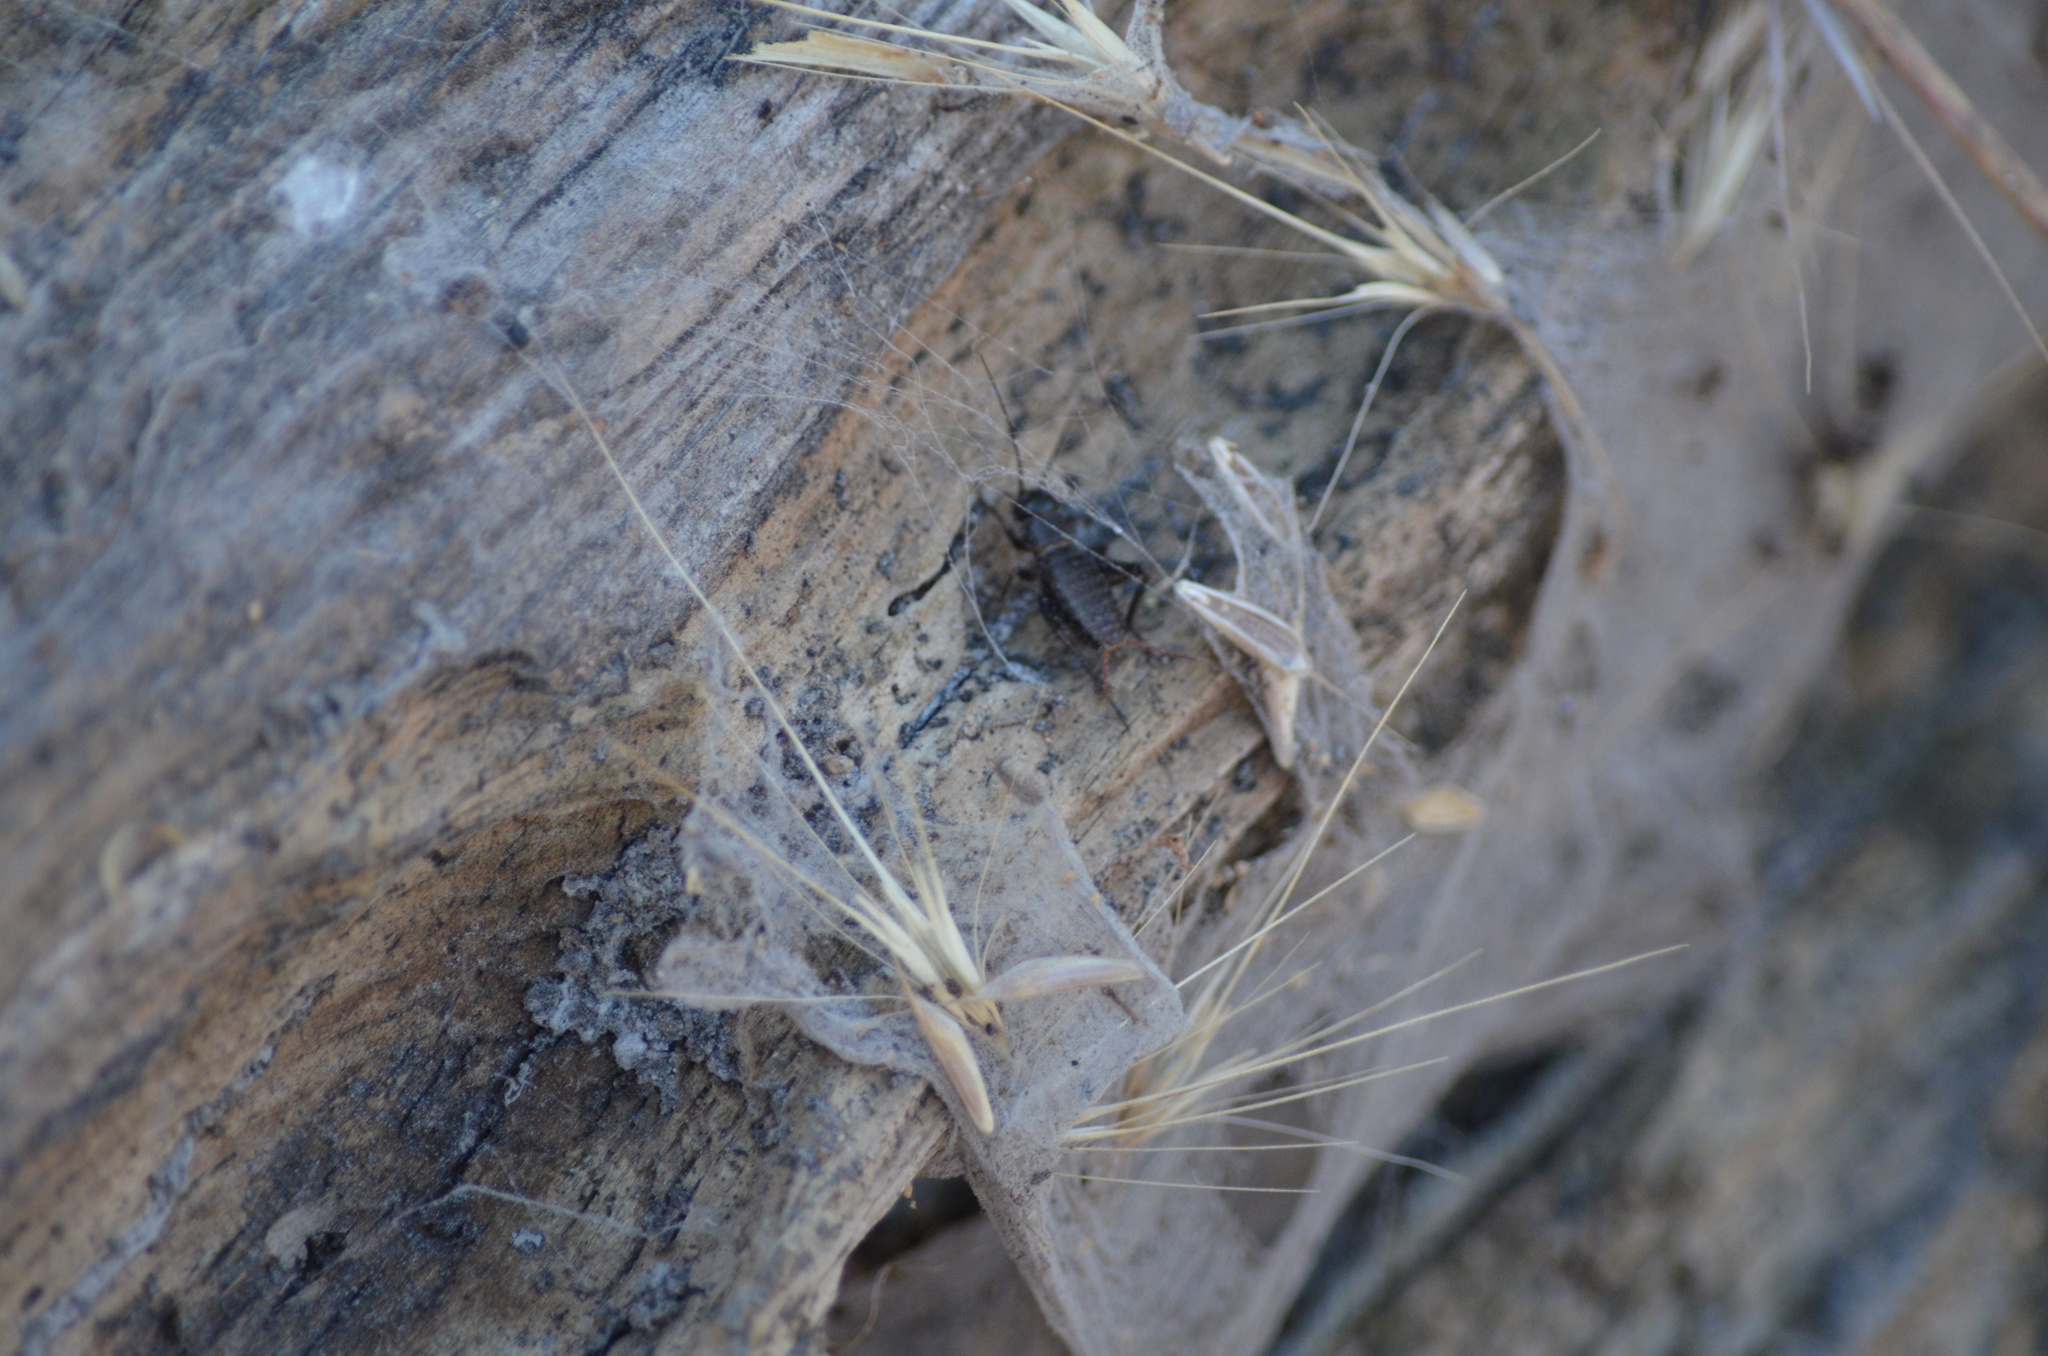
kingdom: Animalia
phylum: Arthropoda
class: Insecta
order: Orthoptera
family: Gryllidae
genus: Gryllus
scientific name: Gryllus pennsylvanicus
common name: Fall field cricket
